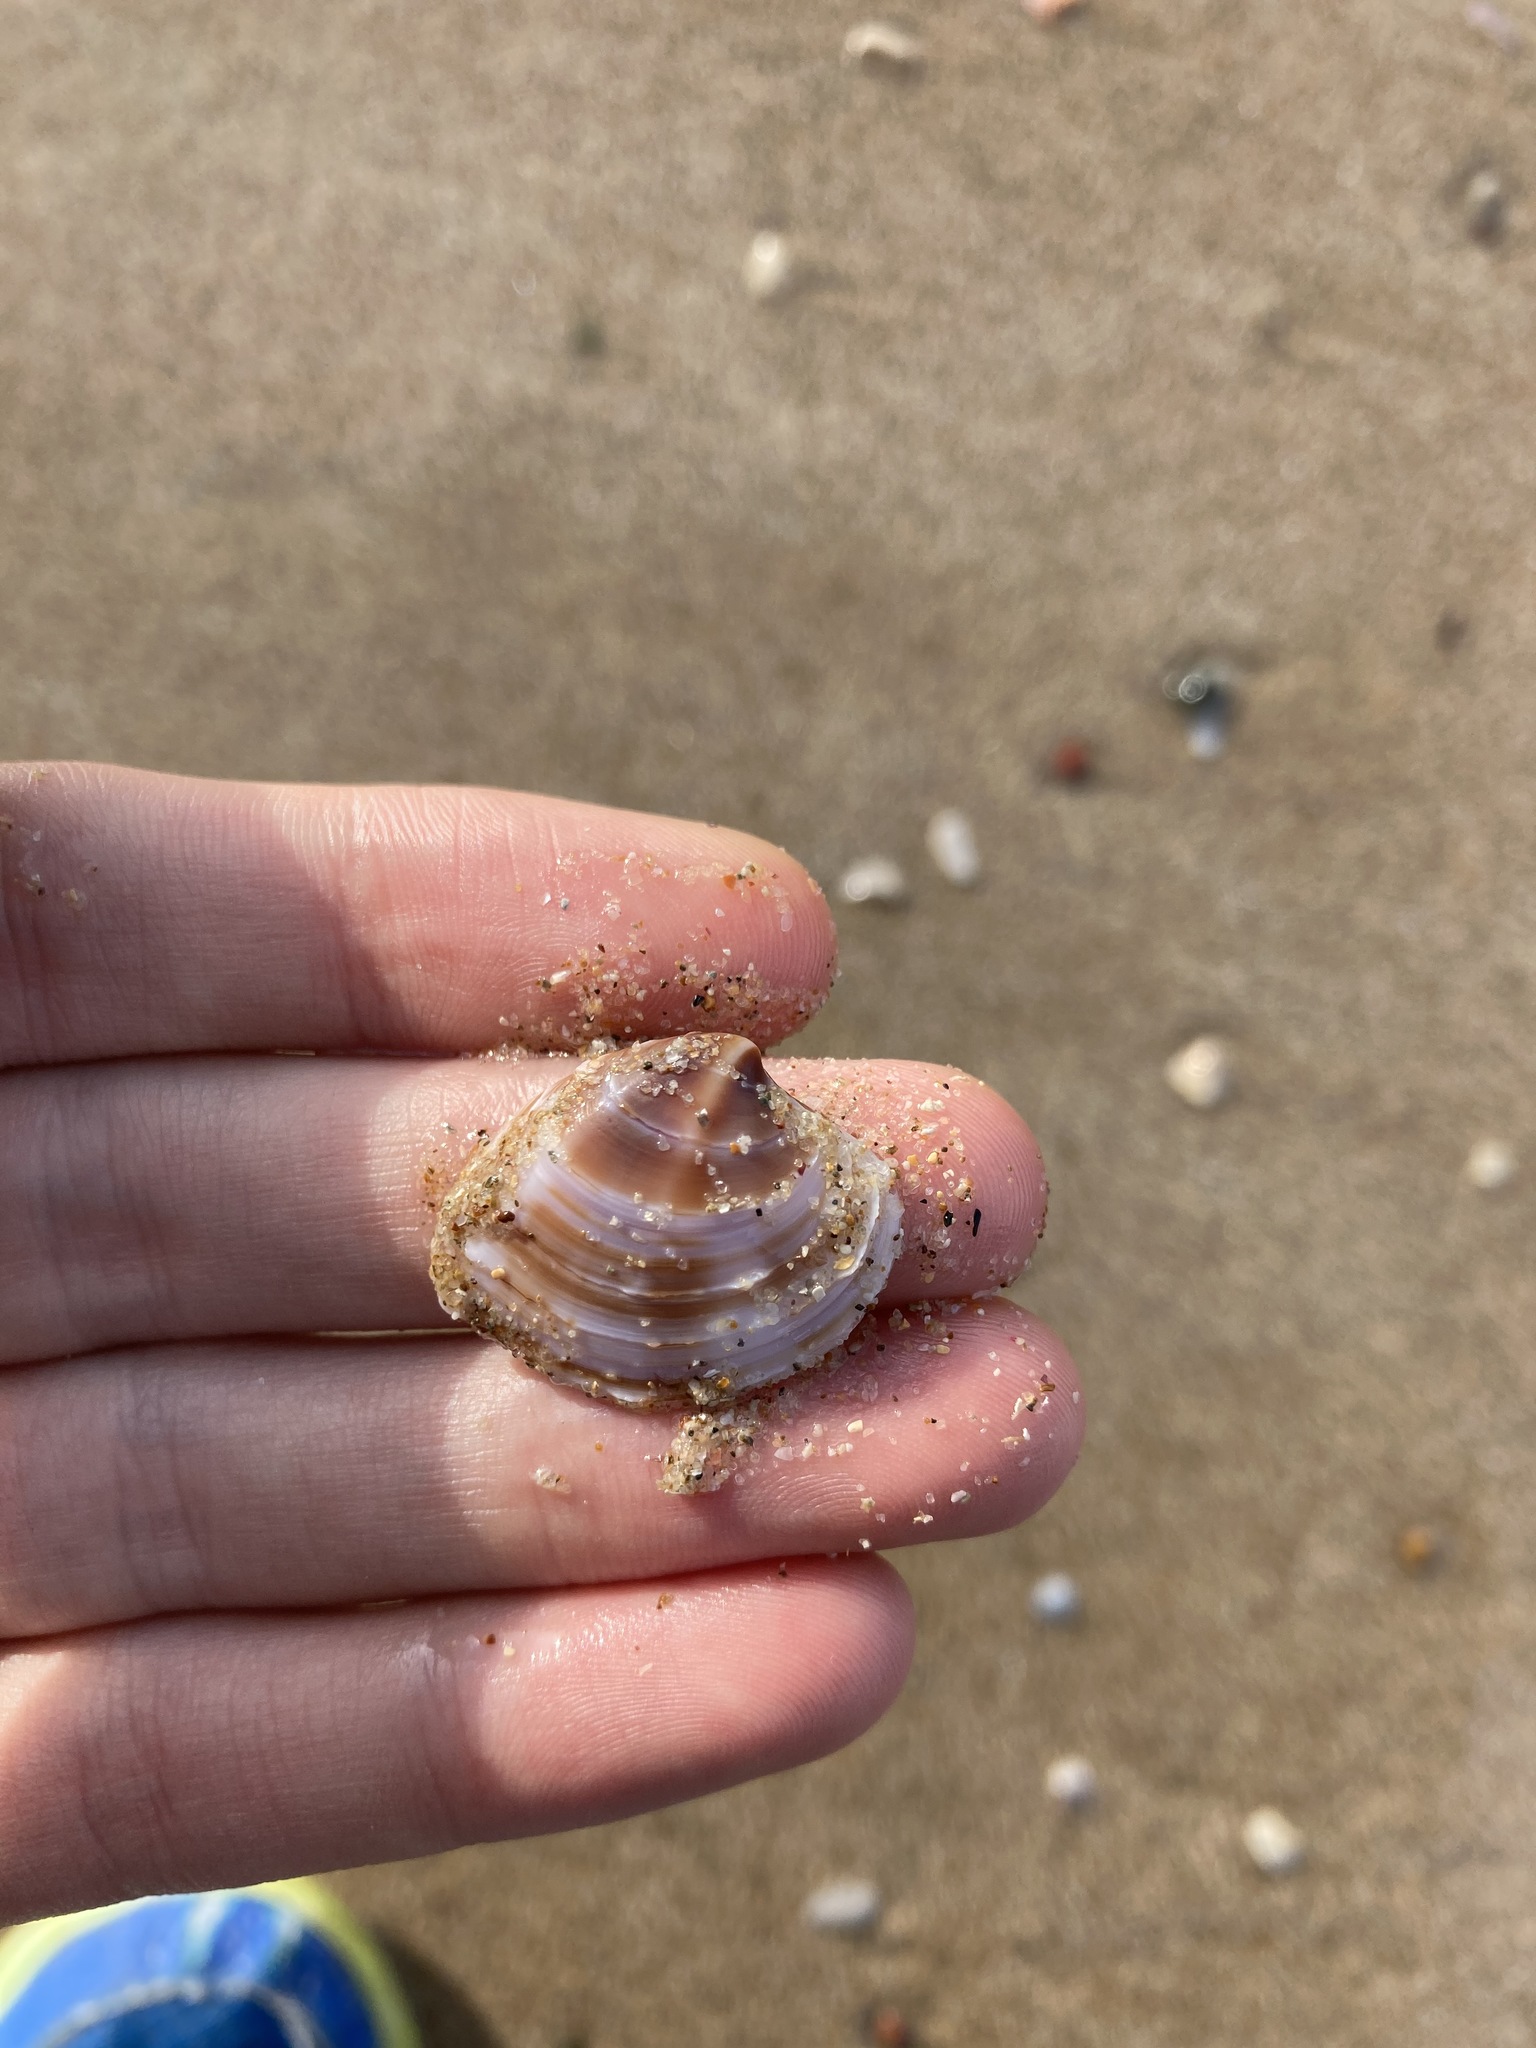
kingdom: Animalia
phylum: Mollusca
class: Bivalvia
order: Venerida
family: Veneridae
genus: Bassina
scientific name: Bassina jacksonii
